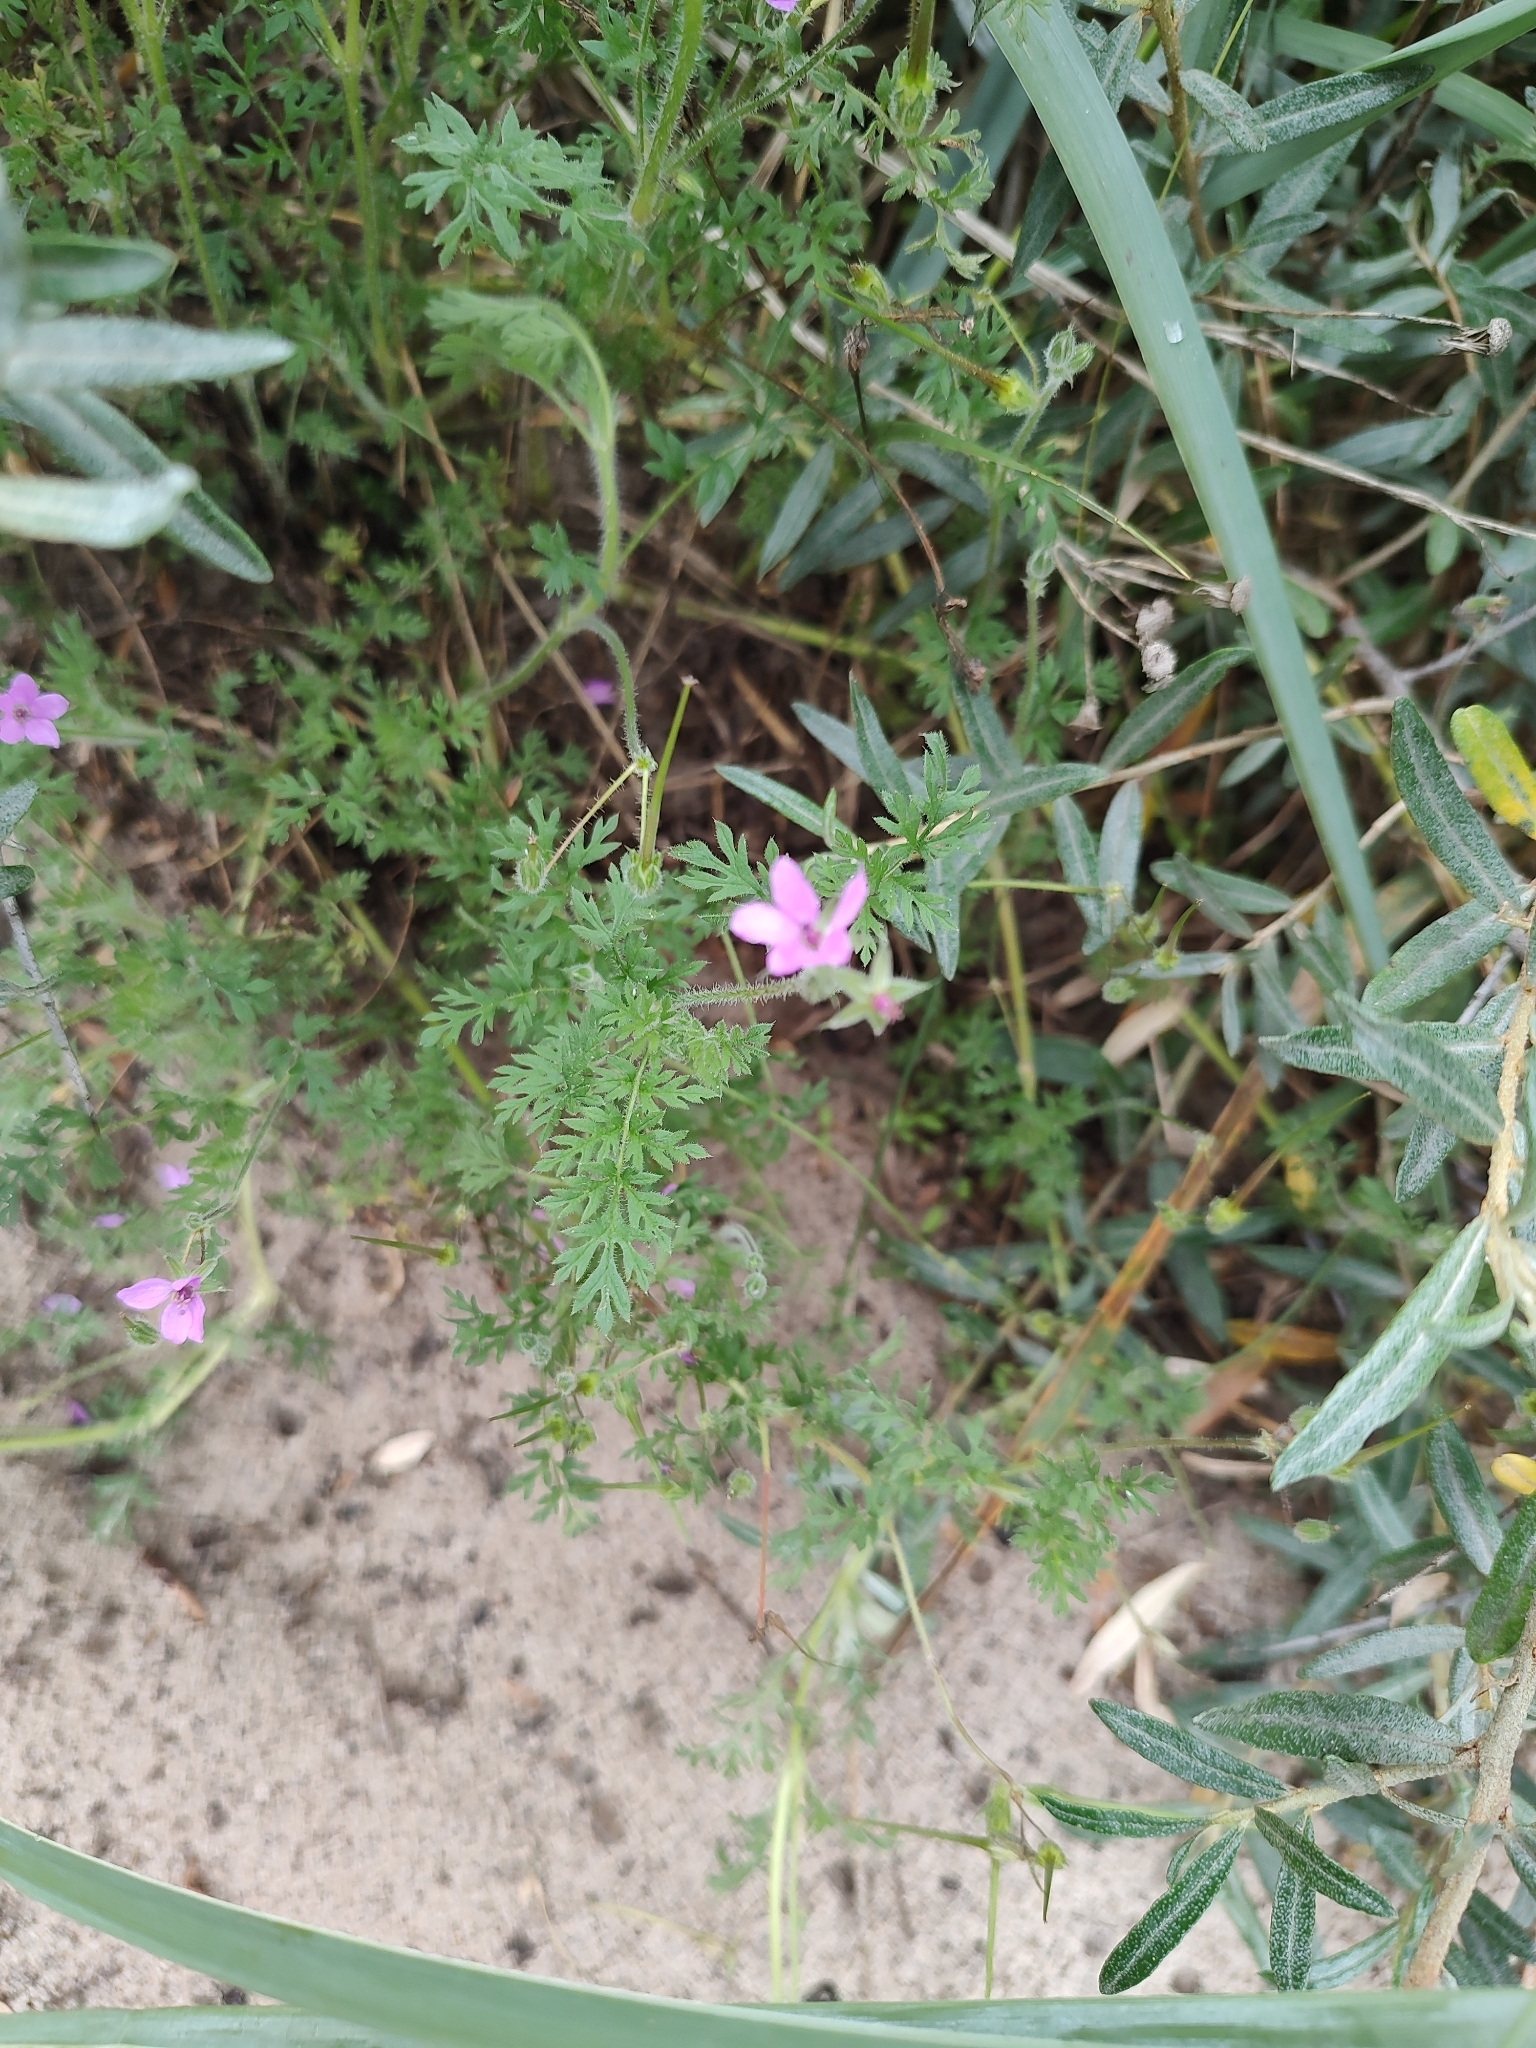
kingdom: Plantae
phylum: Tracheophyta
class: Magnoliopsida
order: Geraniales
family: Geraniaceae
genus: Erodium
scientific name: Erodium cicutarium
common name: Common stork's-bill
